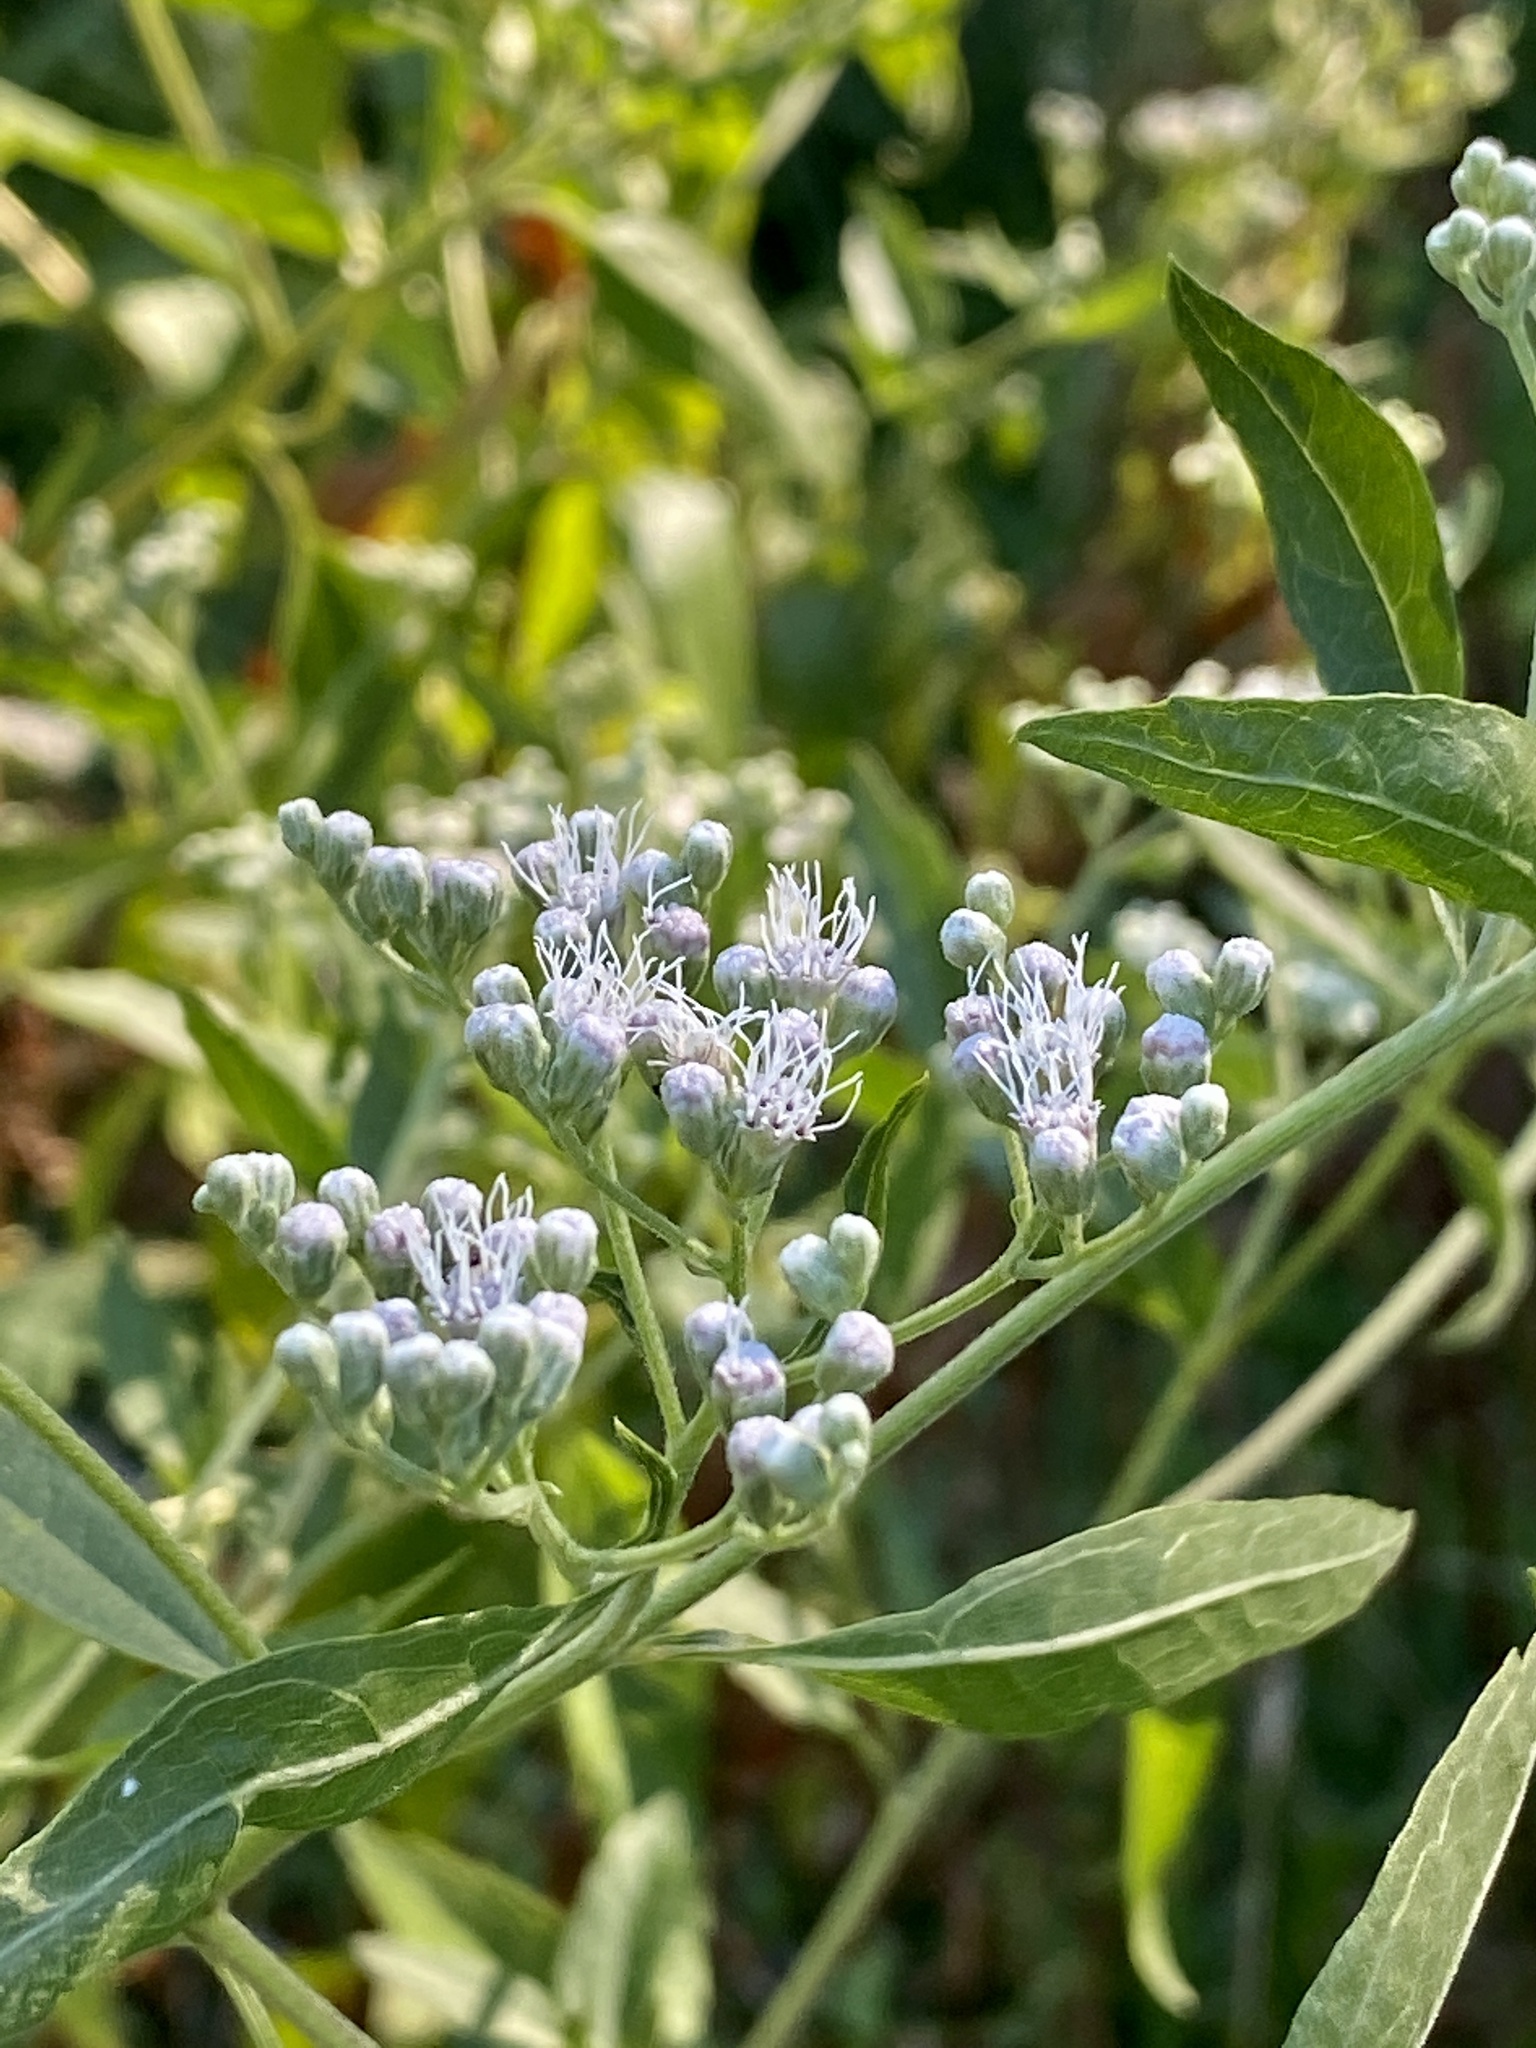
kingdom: Plantae
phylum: Tracheophyta
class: Magnoliopsida
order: Asterales
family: Asteraceae
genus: Eupatorium
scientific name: Eupatorium serotinum
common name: Late boneset
